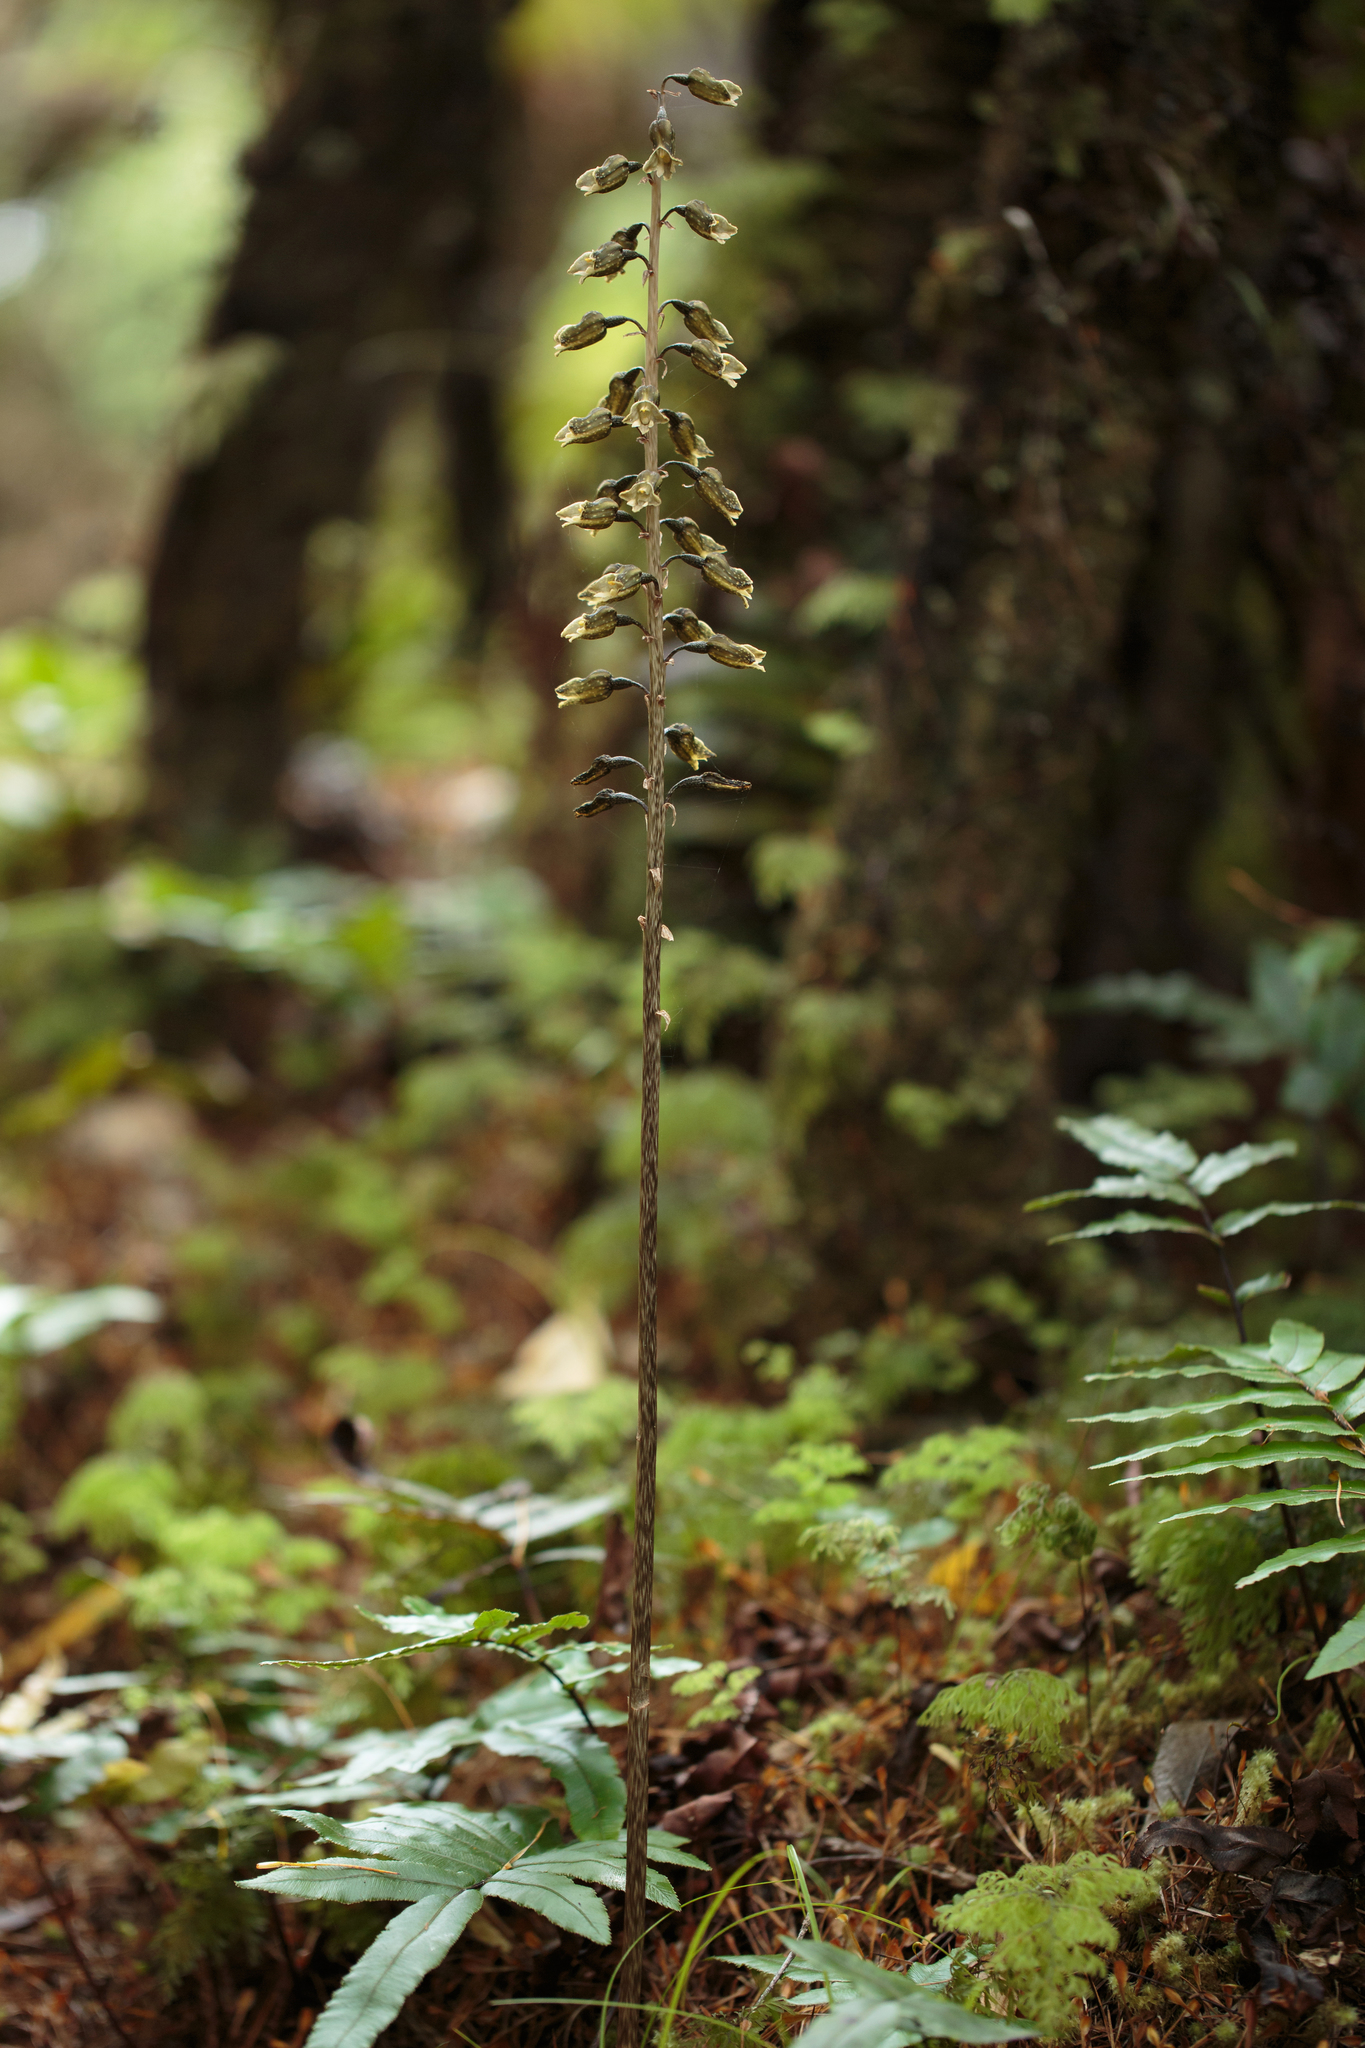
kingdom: Plantae
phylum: Tracheophyta
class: Liliopsida
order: Asparagales
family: Orchidaceae
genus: Gastrodia
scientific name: Gastrodia molloyi
